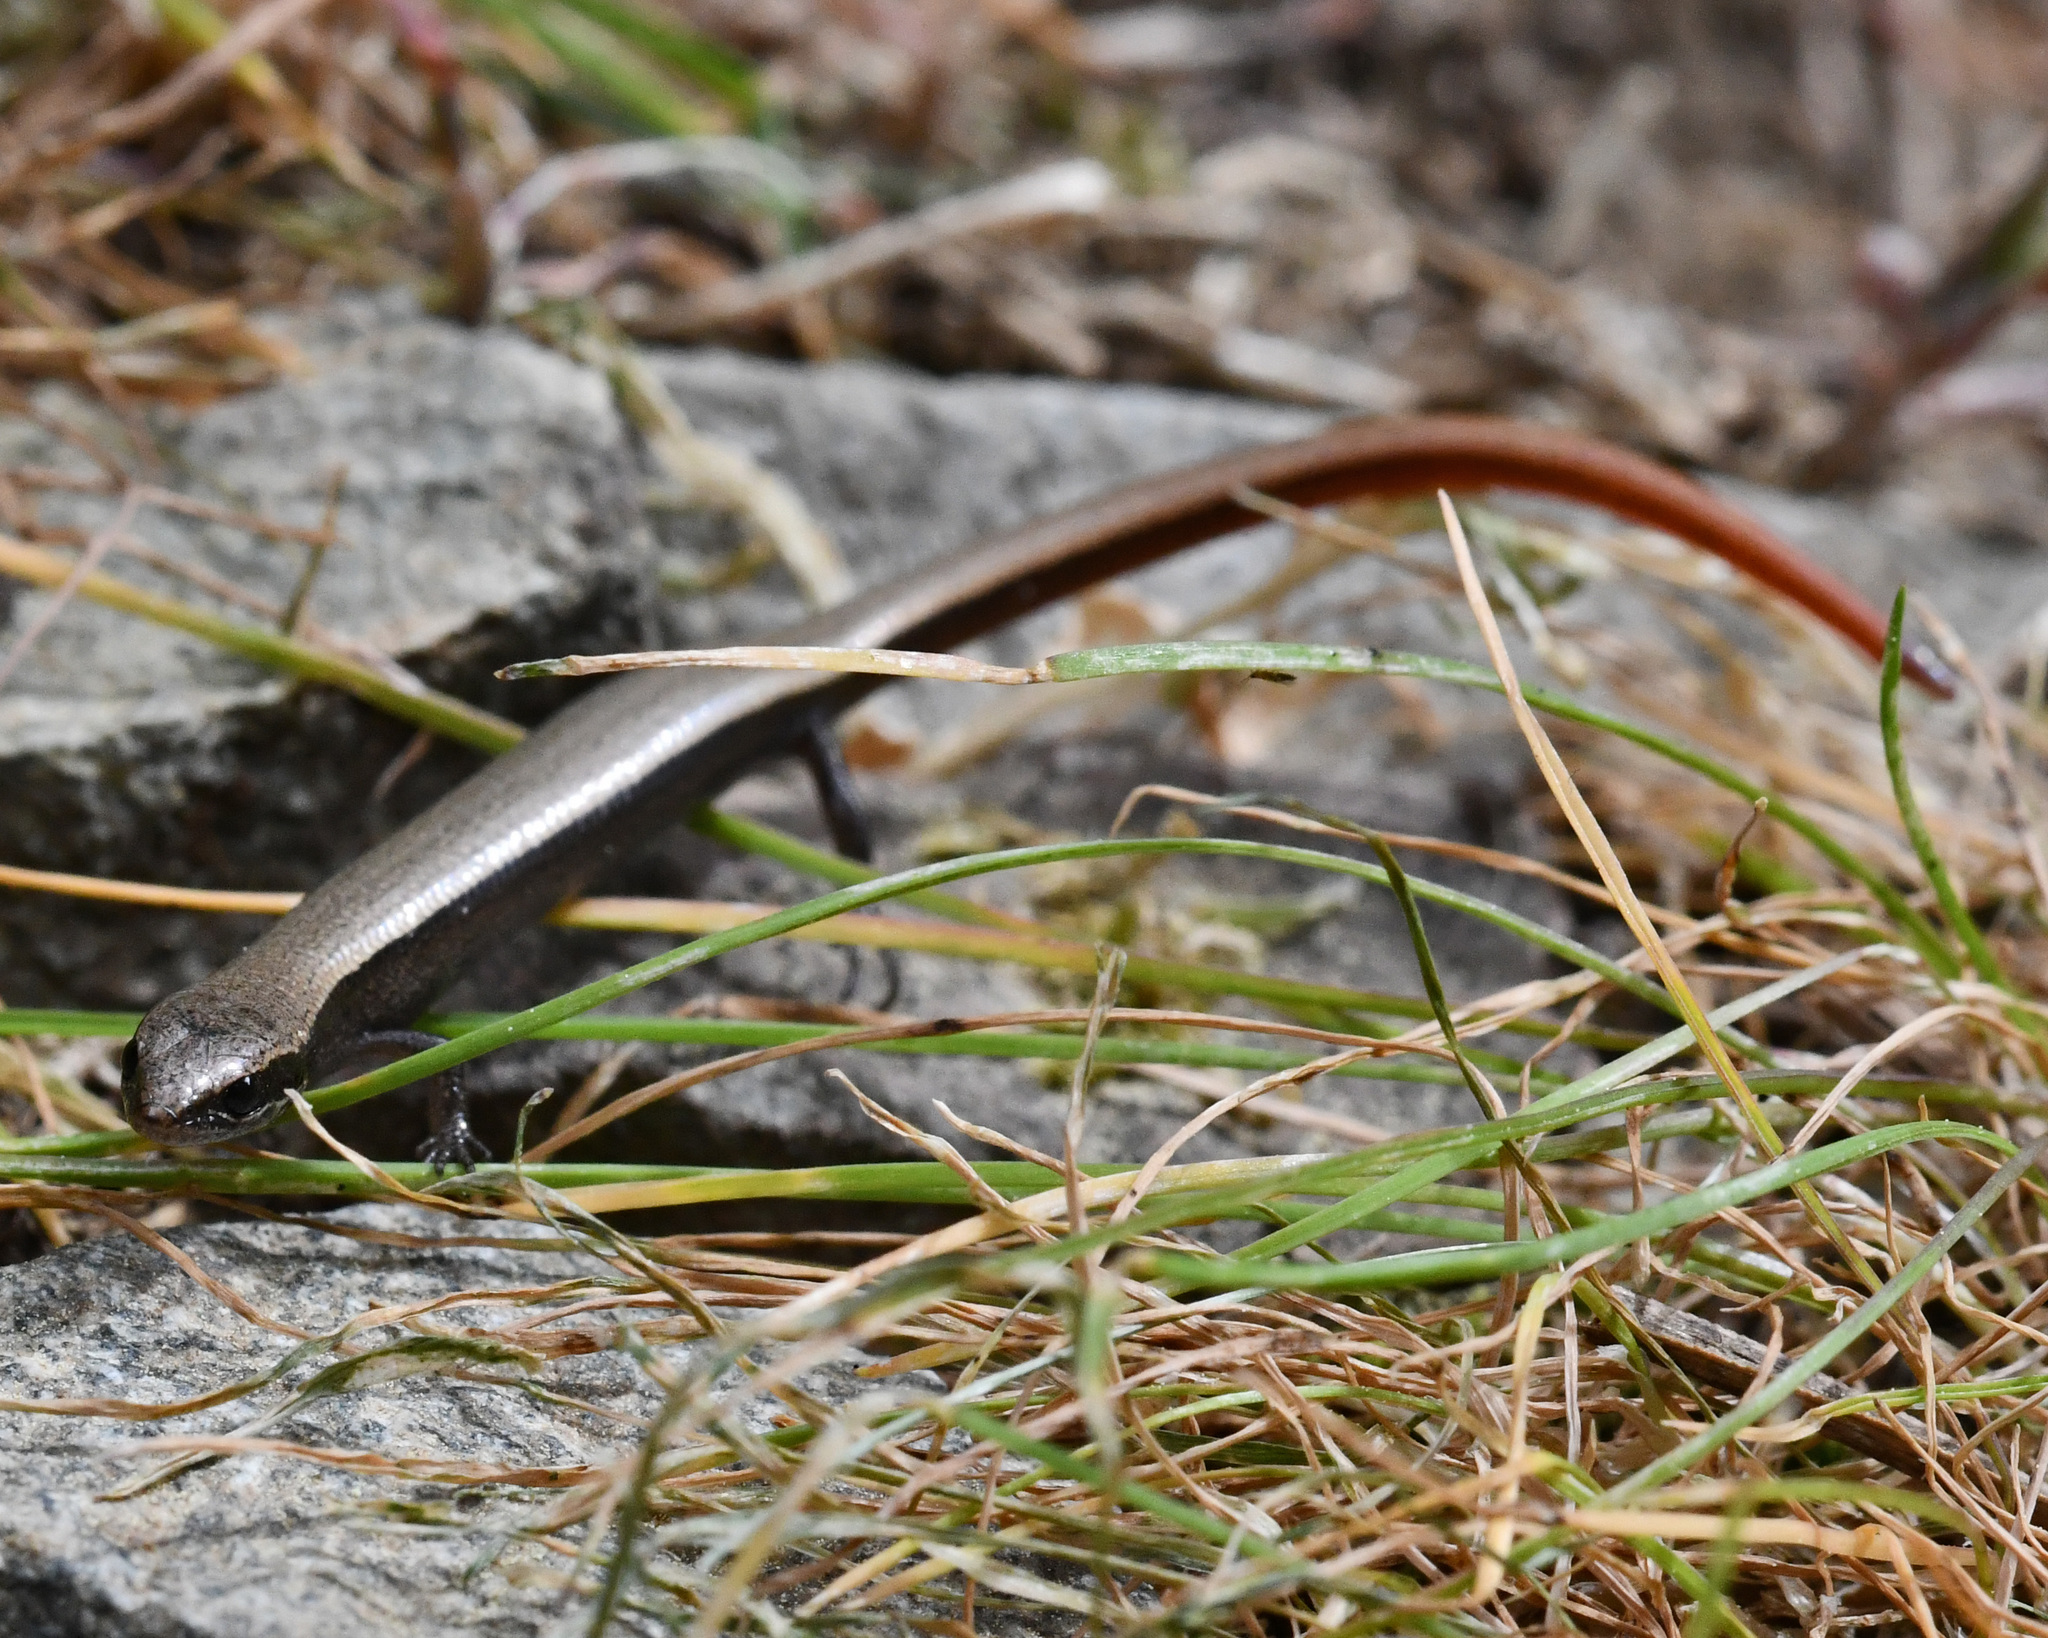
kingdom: Animalia
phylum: Chordata
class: Squamata
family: Scincidae
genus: Ablepharus
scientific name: Ablepharus budaki
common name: Budak’s snake-eyed skink
